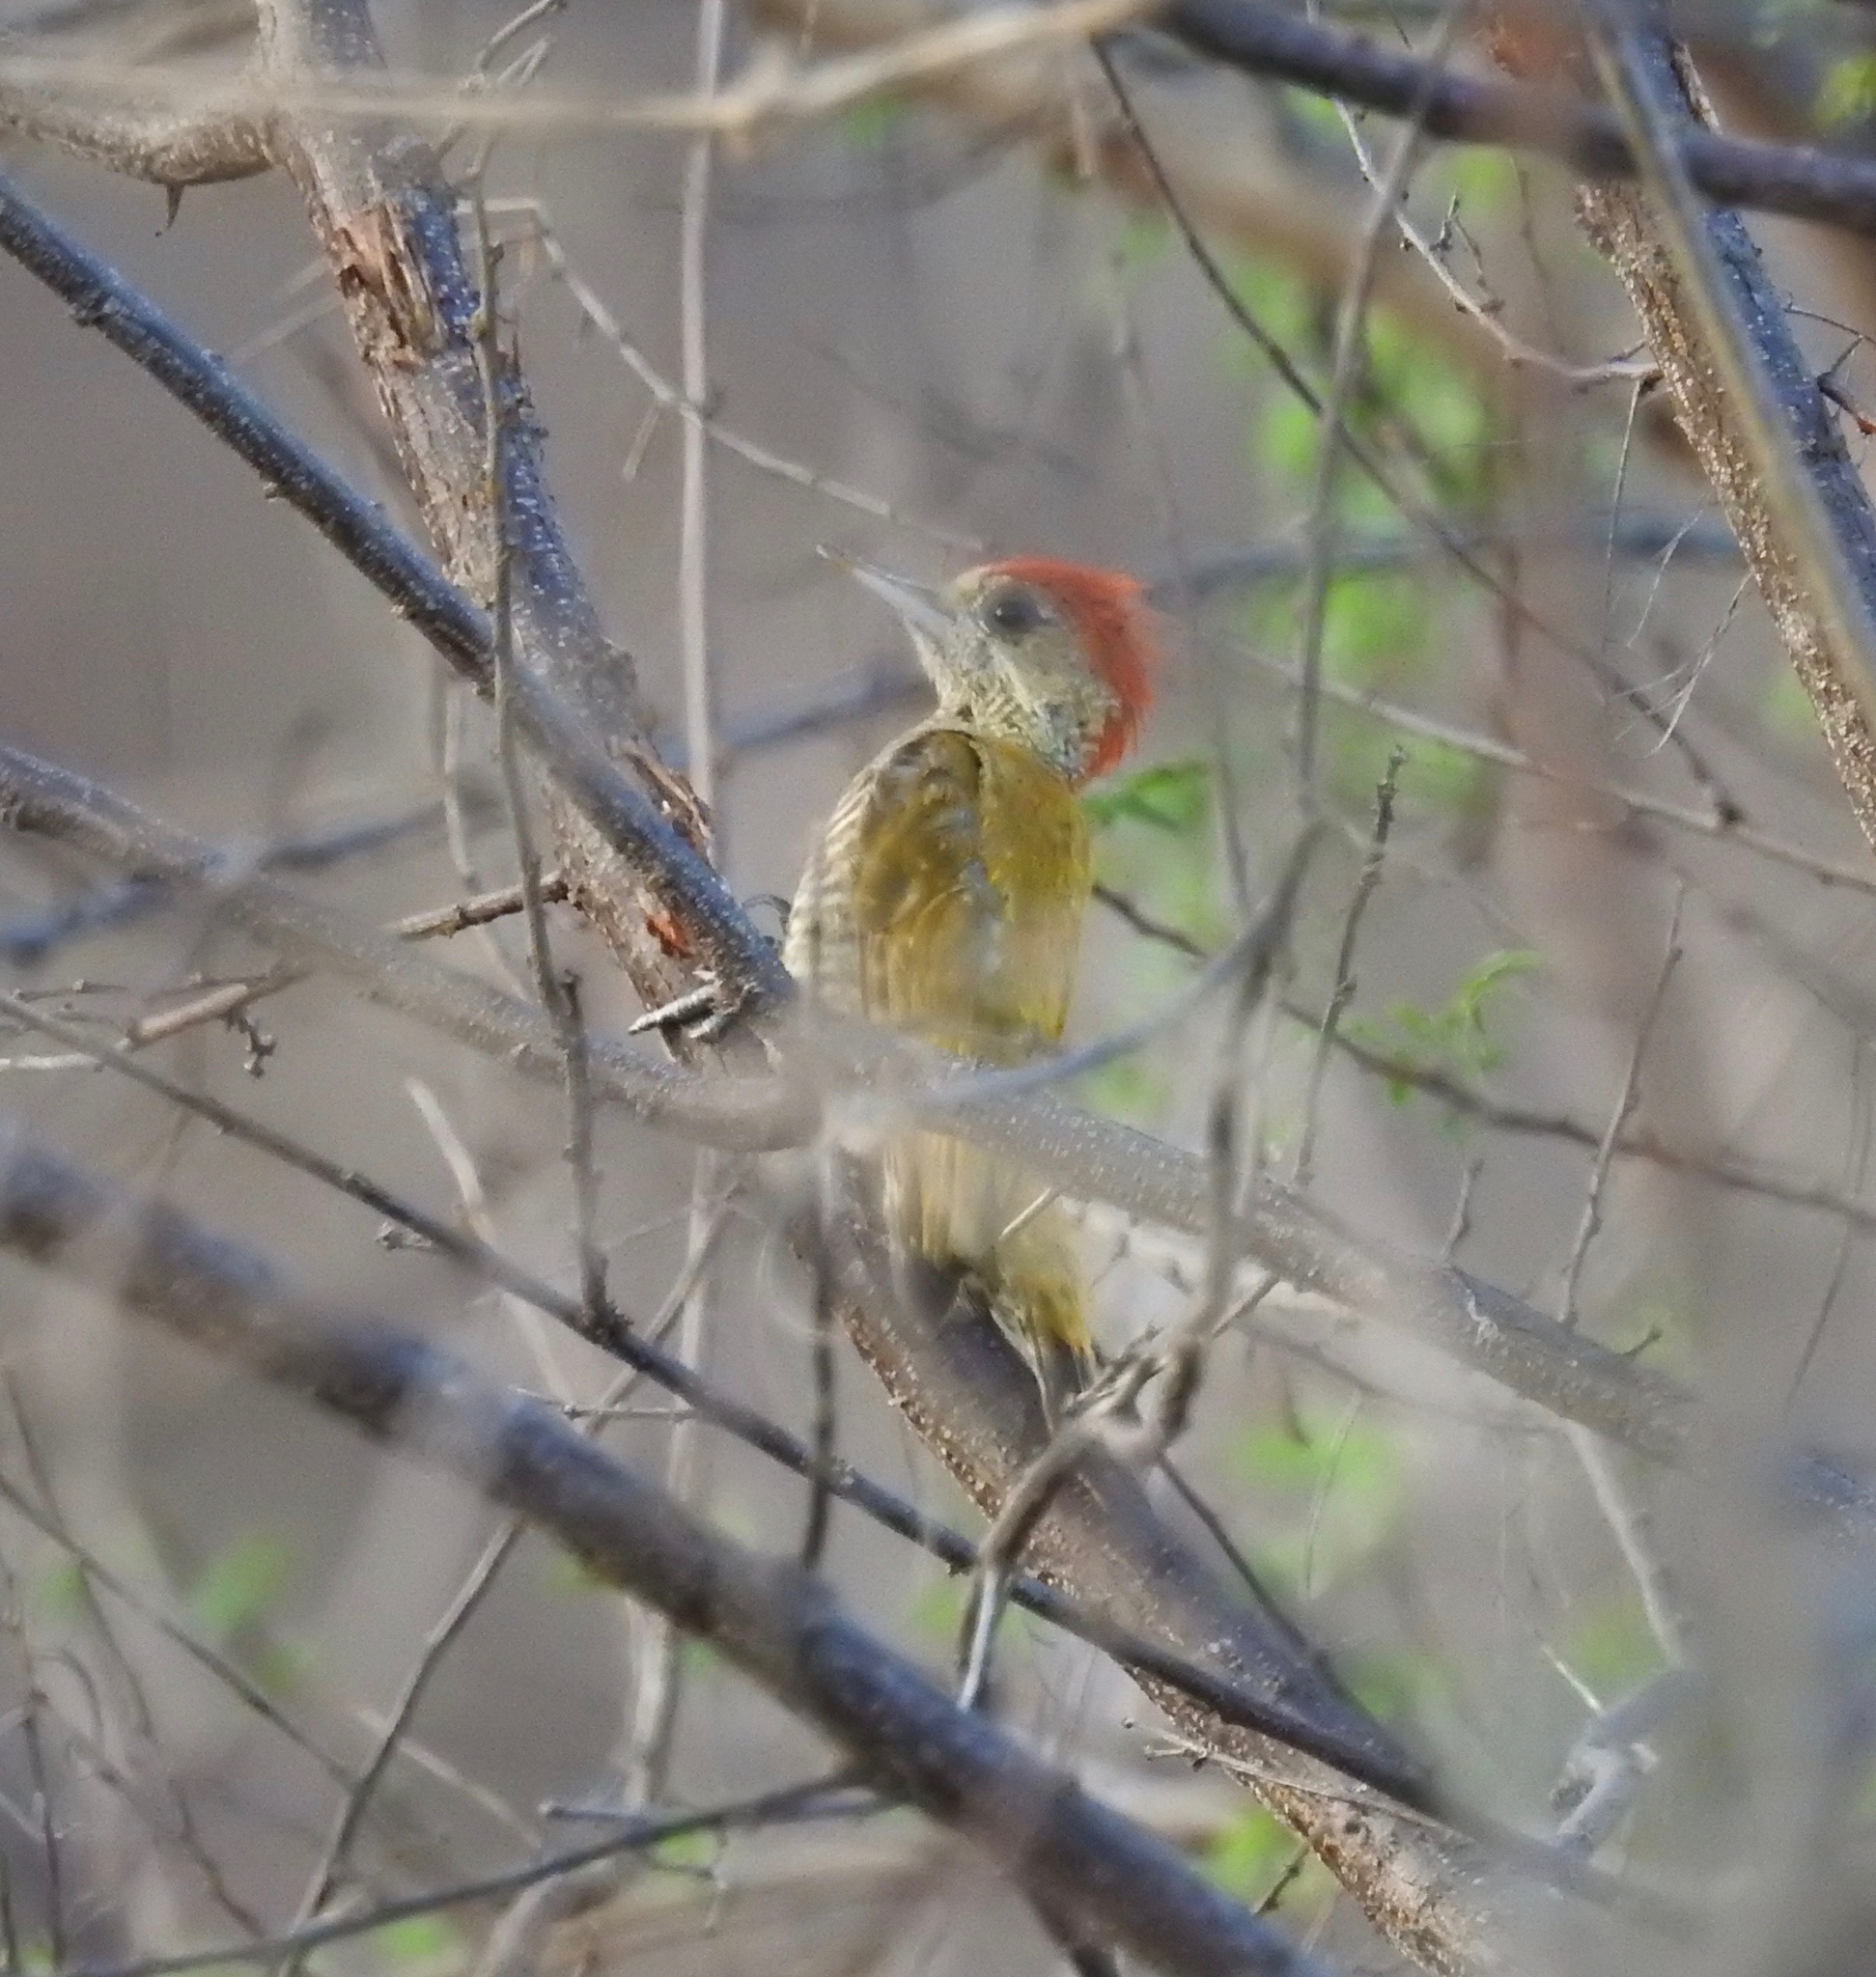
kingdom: Animalia
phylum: Chordata
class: Aves
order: Piciformes
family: Picidae
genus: Veniliornis
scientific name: Veniliornis passerinus
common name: Little woodpecker
